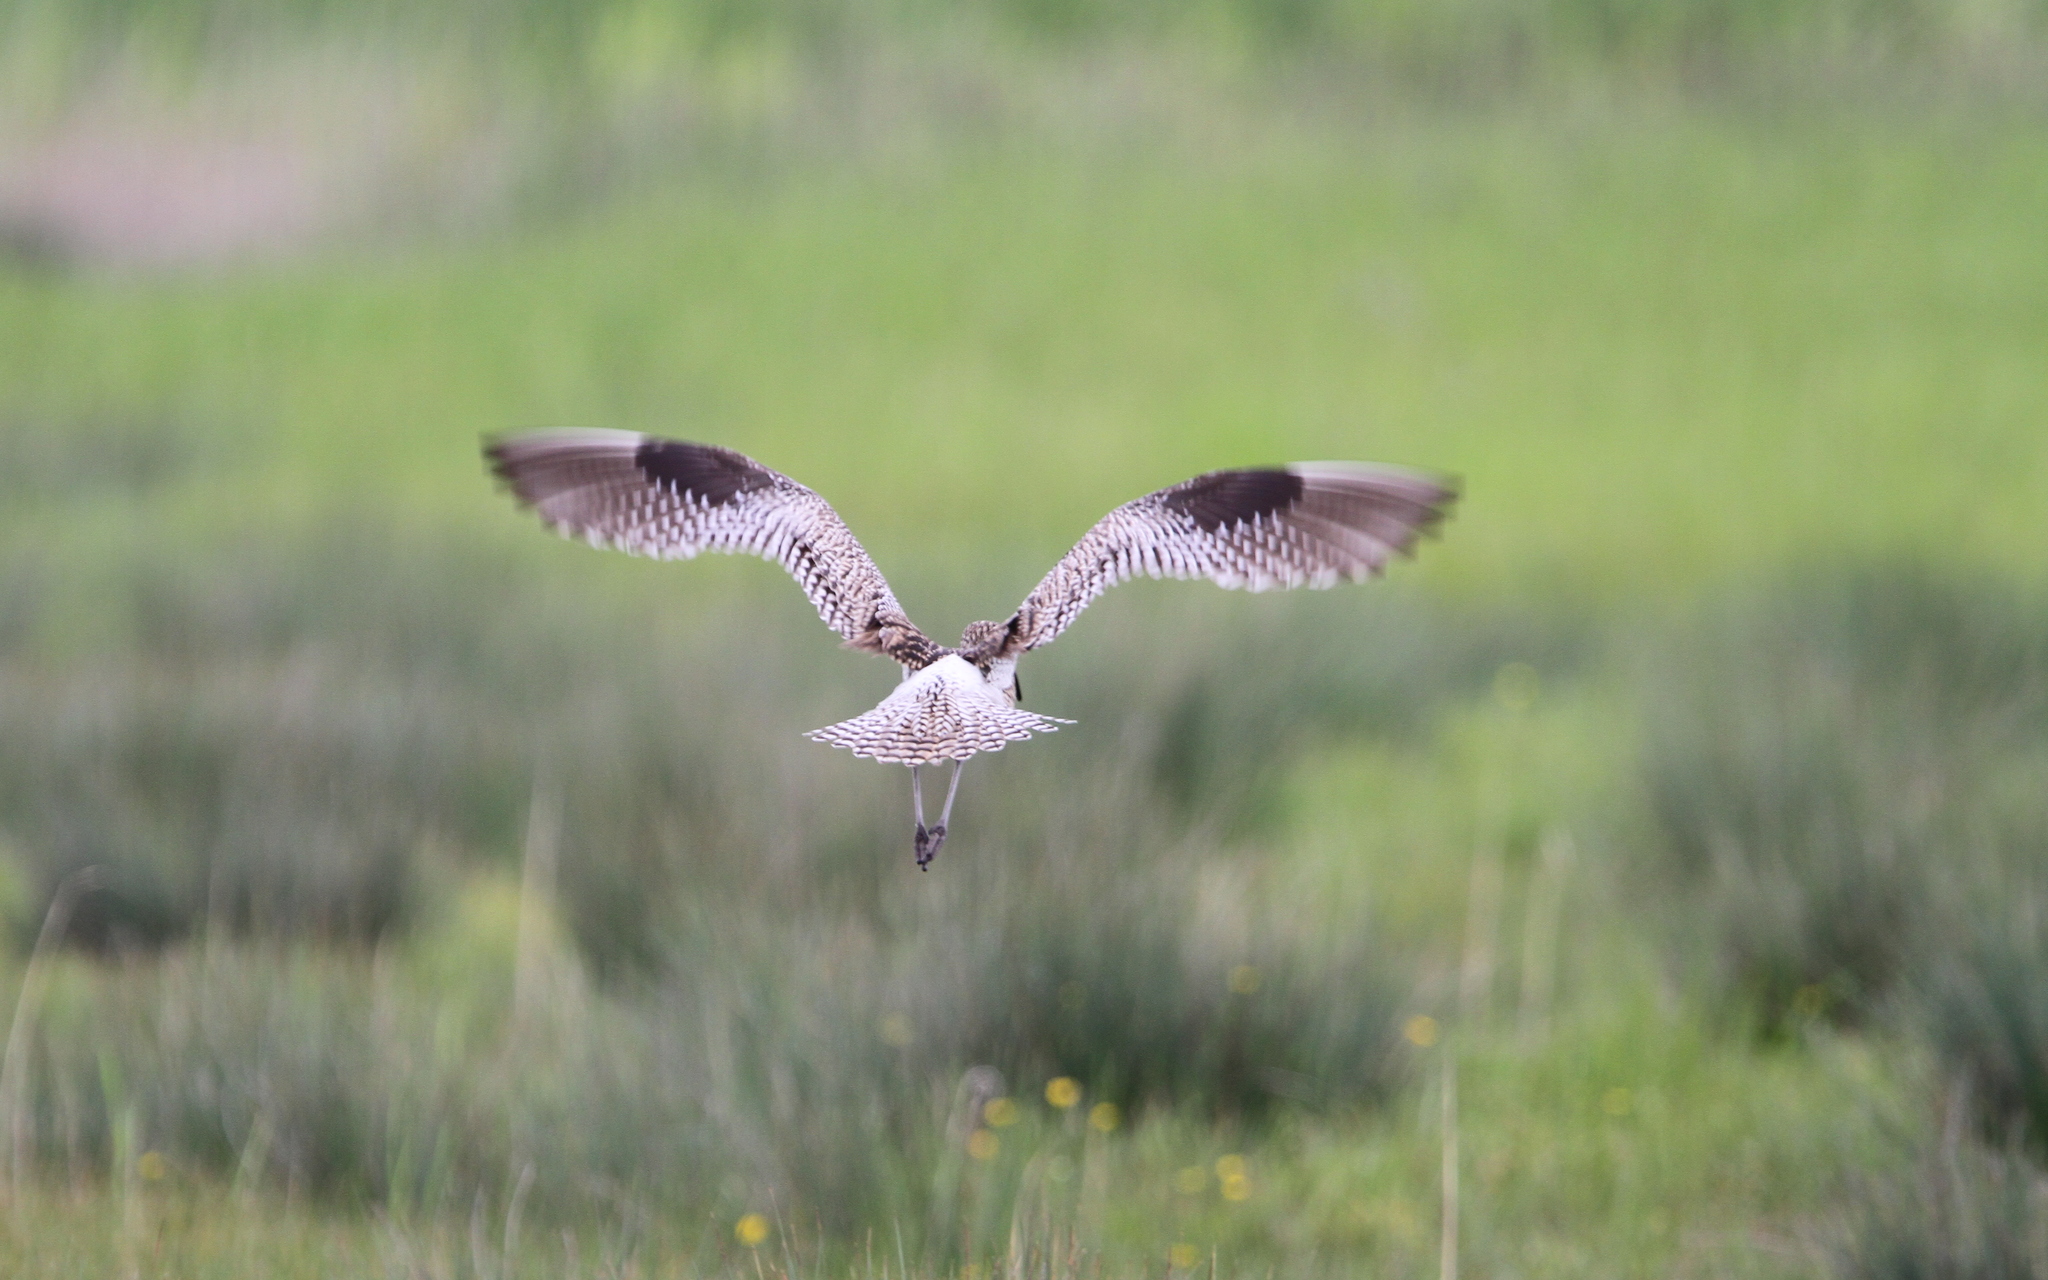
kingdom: Animalia
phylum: Chordata
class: Aves
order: Charadriiformes
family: Scolopacidae
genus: Numenius
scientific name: Numenius arquata
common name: Eurasian curlew
